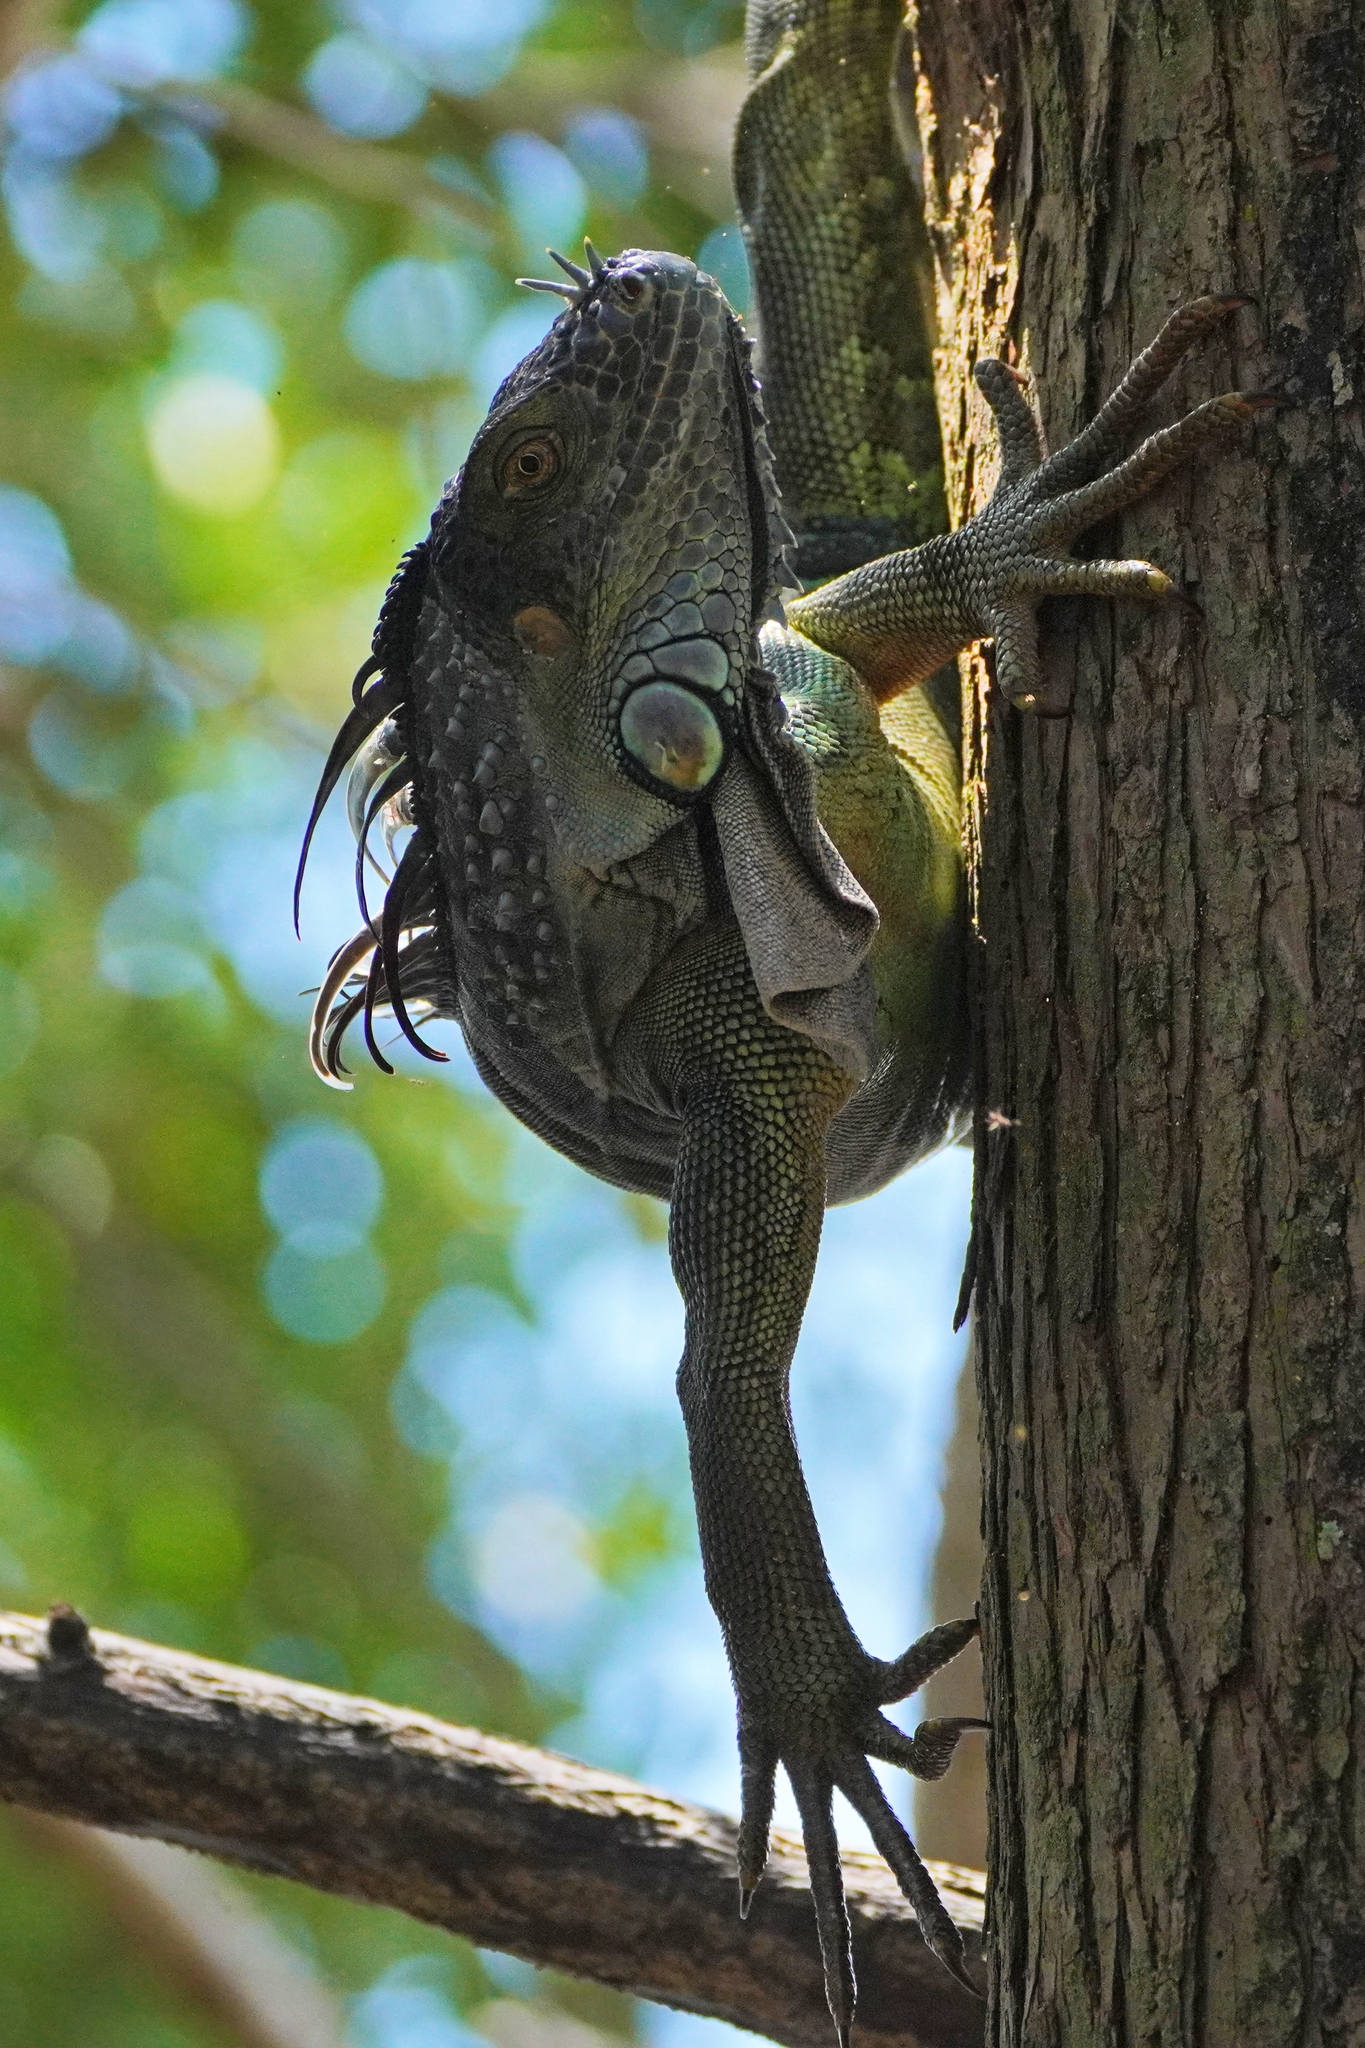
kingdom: Animalia
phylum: Chordata
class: Squamata
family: Iguanidae
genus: Iguana
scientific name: Iguana iguana
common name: Green iguana
